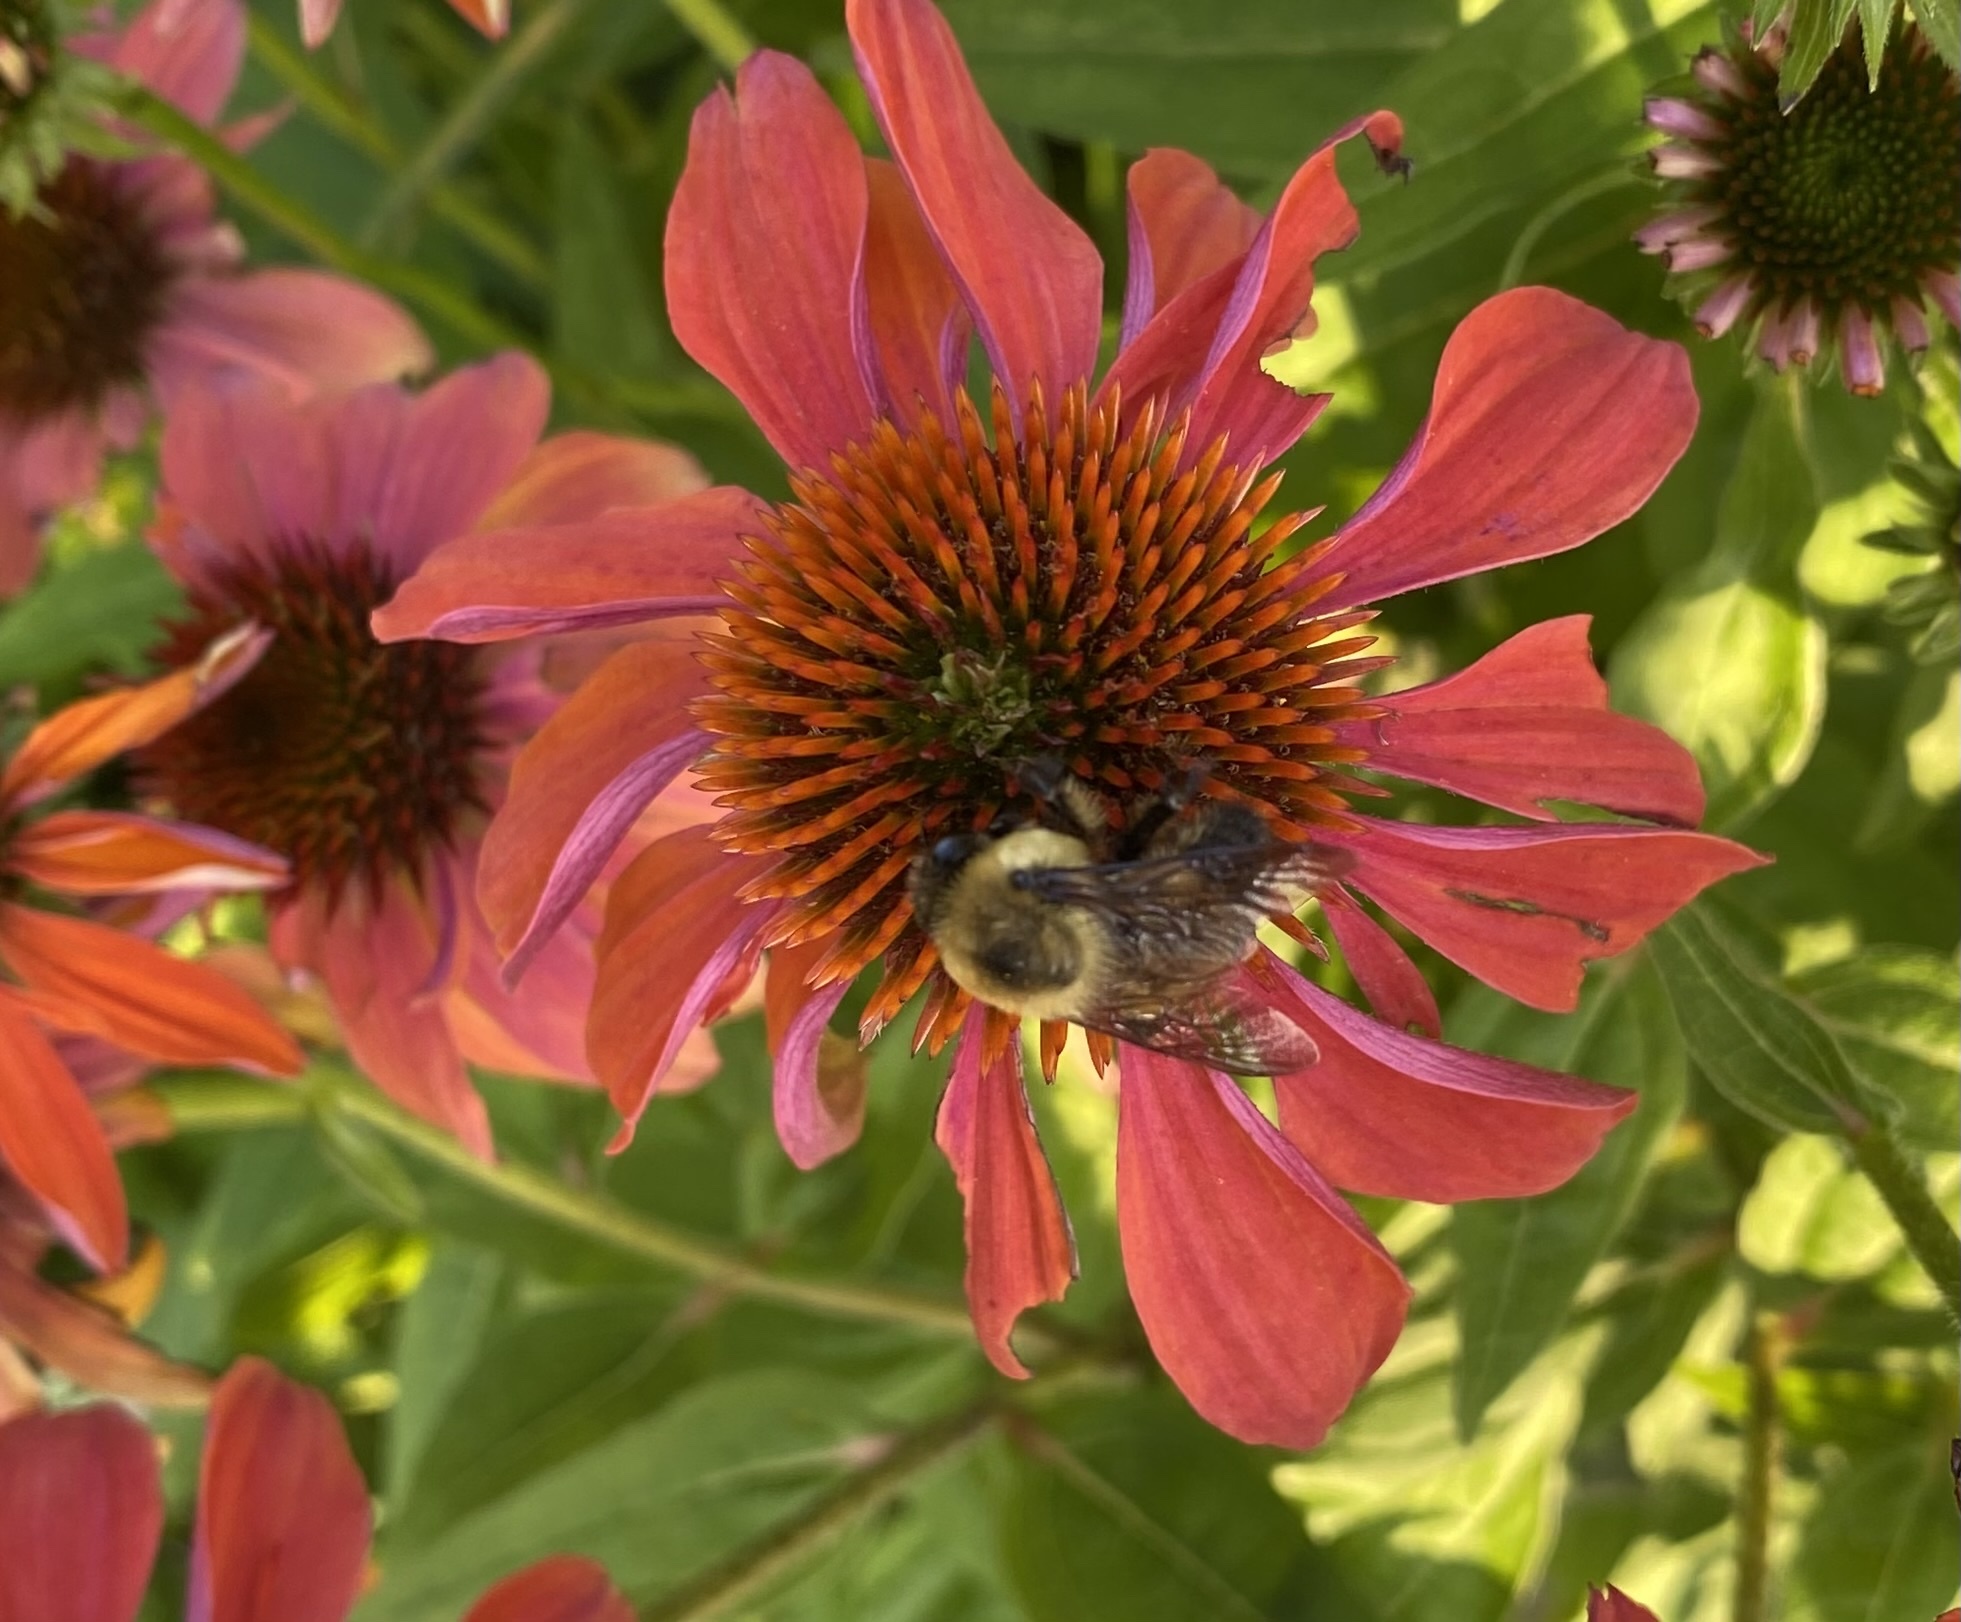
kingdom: Animalia
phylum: Arthropoda
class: Insecta
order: Hymenoptera
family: Apidae
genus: Bombus
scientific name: Bombus griseocollis
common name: Brown-belted bumble bee
